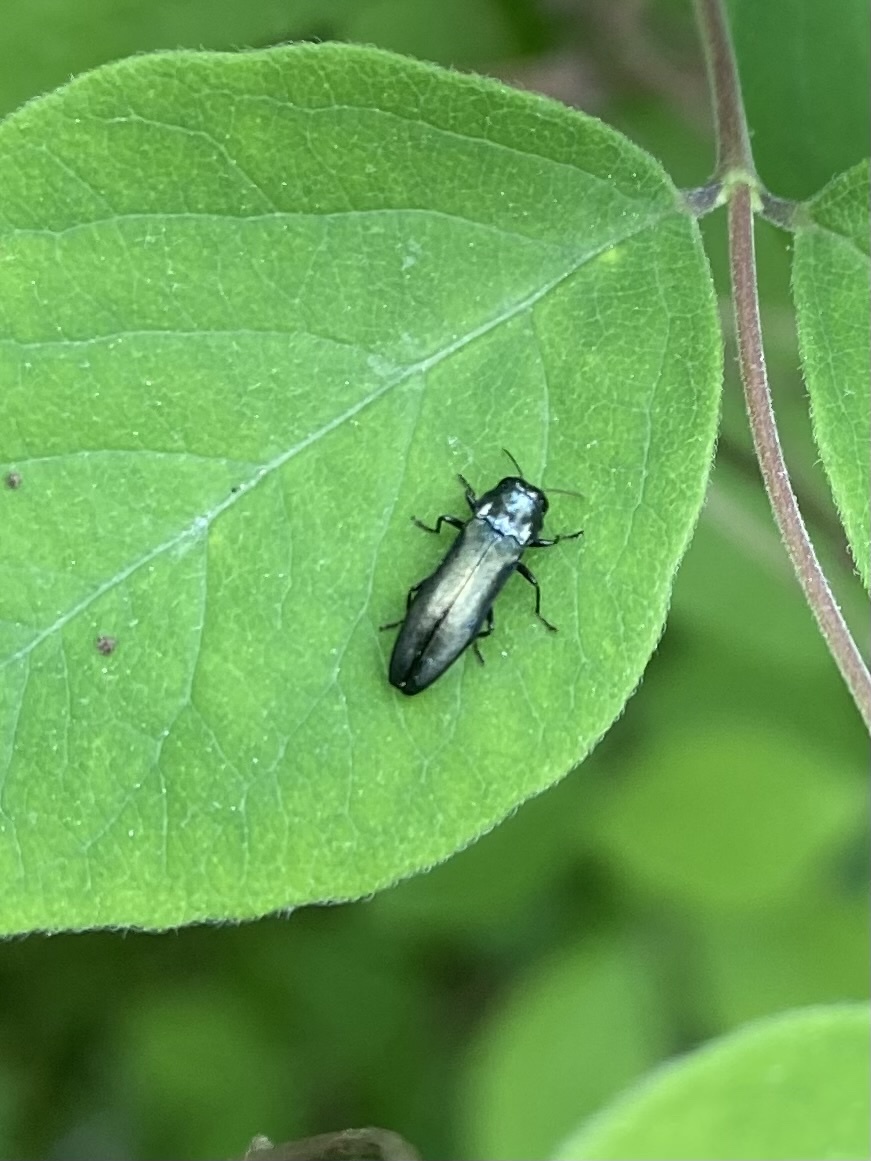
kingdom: Animalia
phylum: Arthropoda
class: Insecta
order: Coleoptera
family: Buprestidae
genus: Agrilus
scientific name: Agrilus cyanescens
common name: Bluish borer beetle
